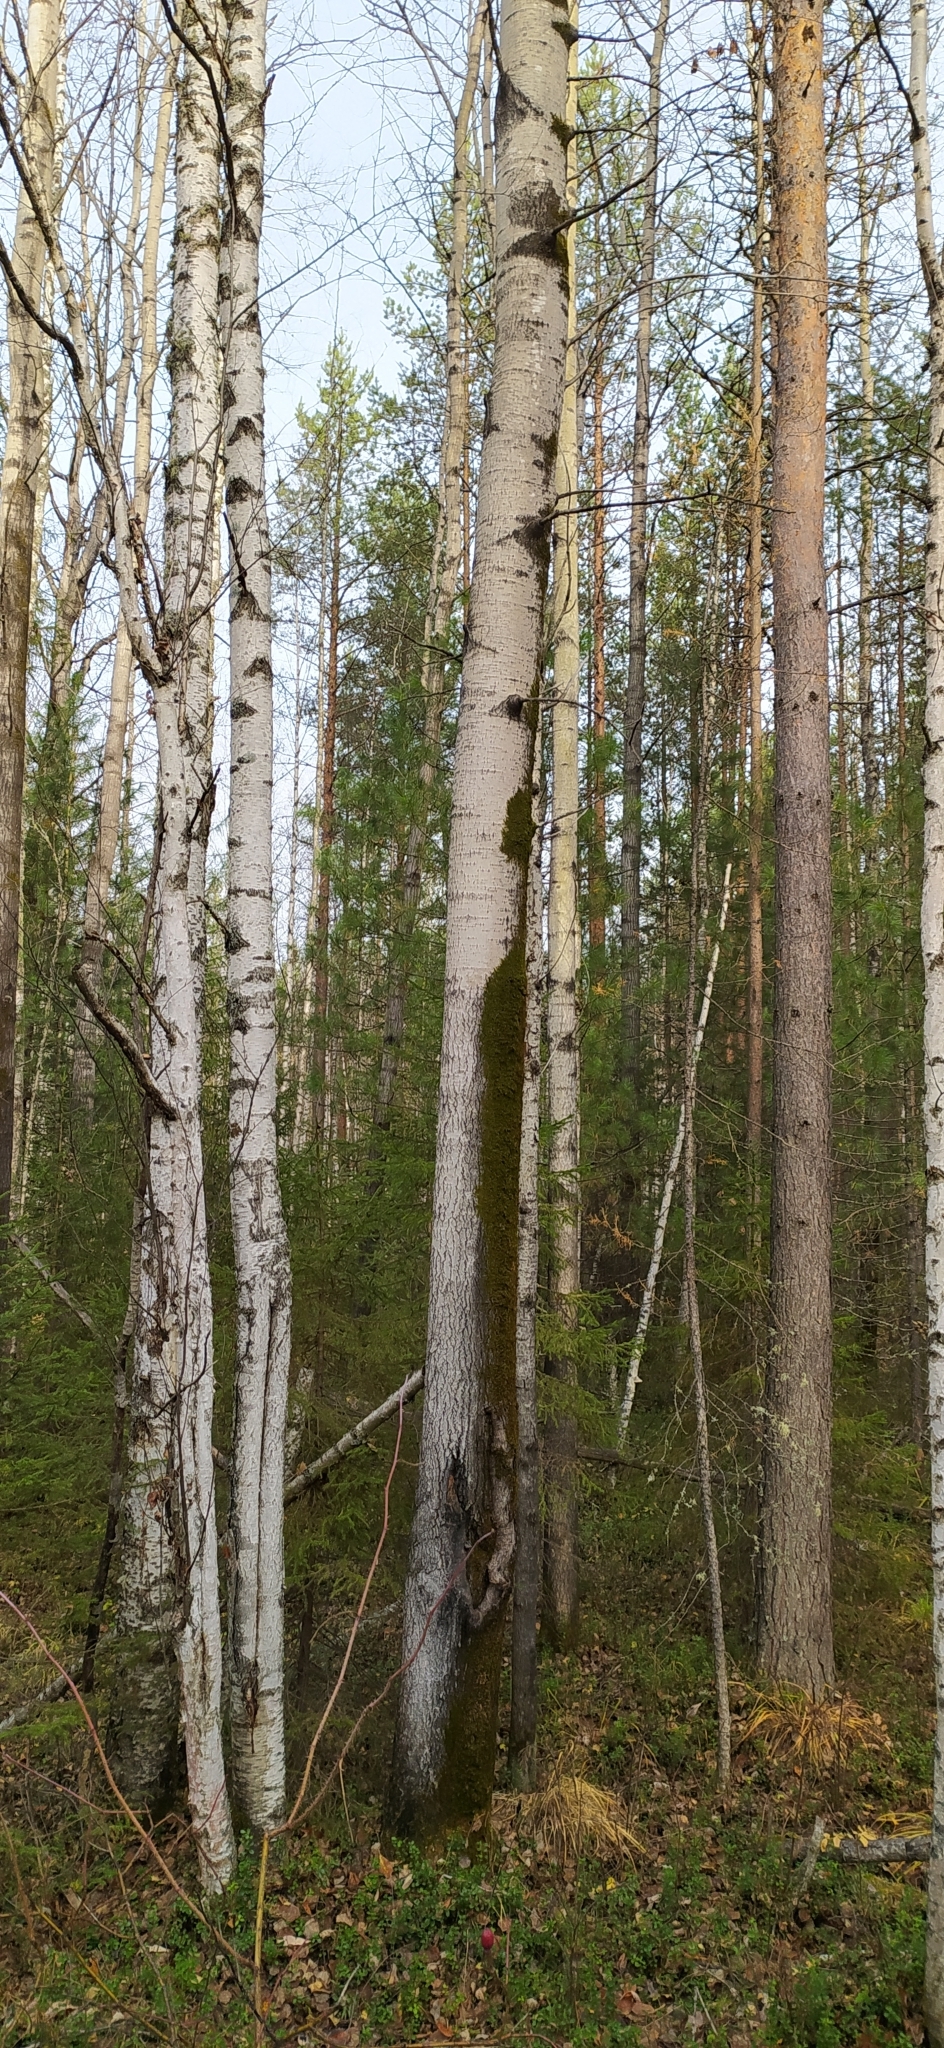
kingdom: Plantae
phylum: Tracheophyta
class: Magnoliopsida
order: Malpighiales
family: Salicaceae
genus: Populus
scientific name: Populus tremula
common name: European aspen
